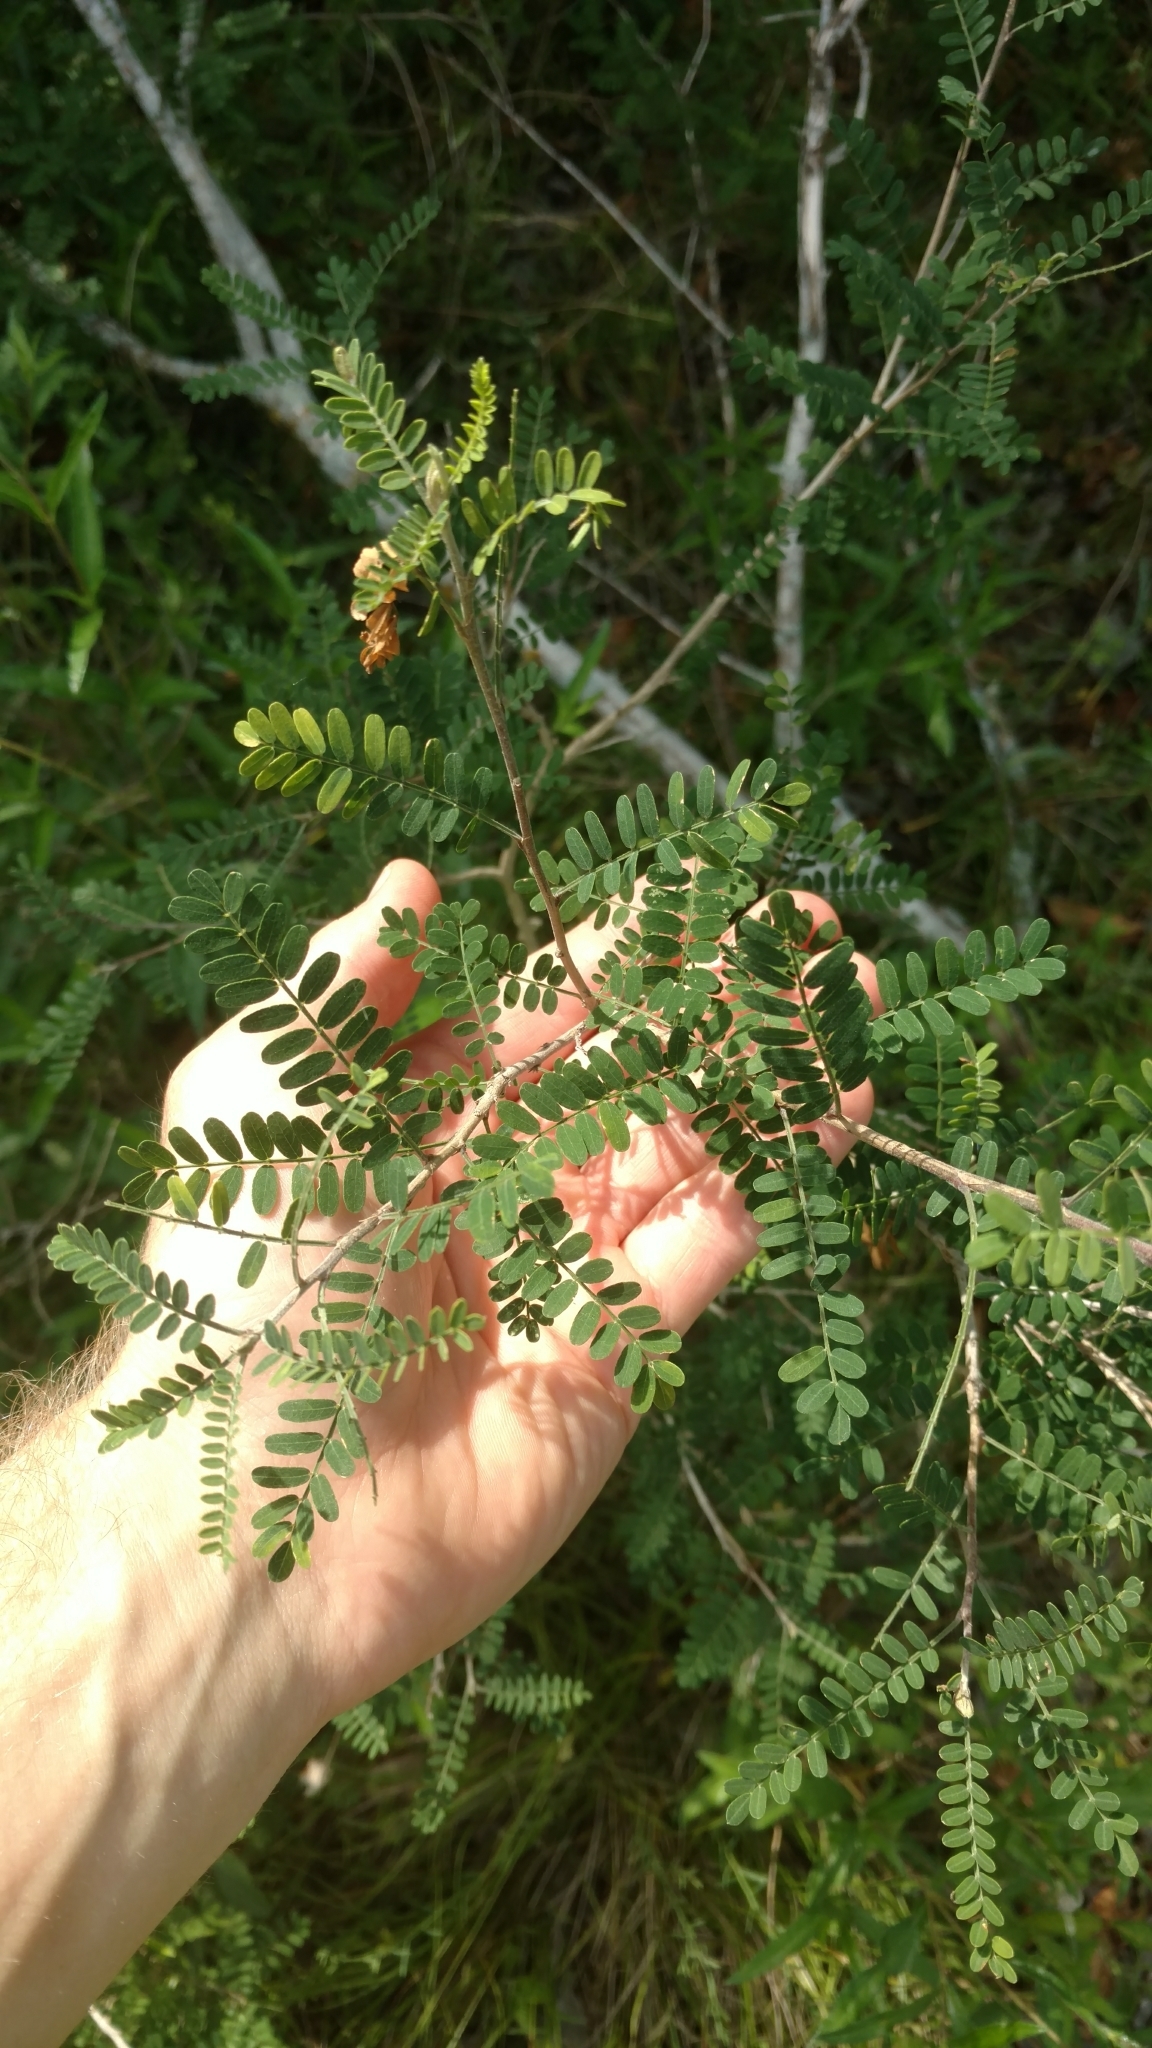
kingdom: Plantae
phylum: Tracheophyta
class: Magnoliopsida
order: Fabales
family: Fabaceae
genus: Eysenhardtia
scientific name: Eysenhardtia texana
